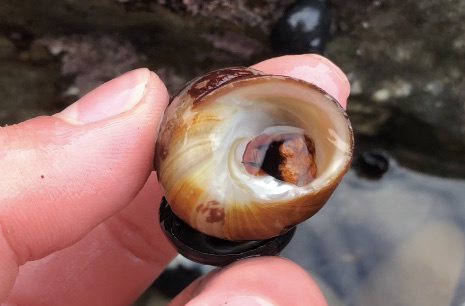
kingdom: Animalia
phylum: Mollusca
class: Gastropoda
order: Trochida
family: Tegulidae
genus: Tegula
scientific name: Tegula brunnea
